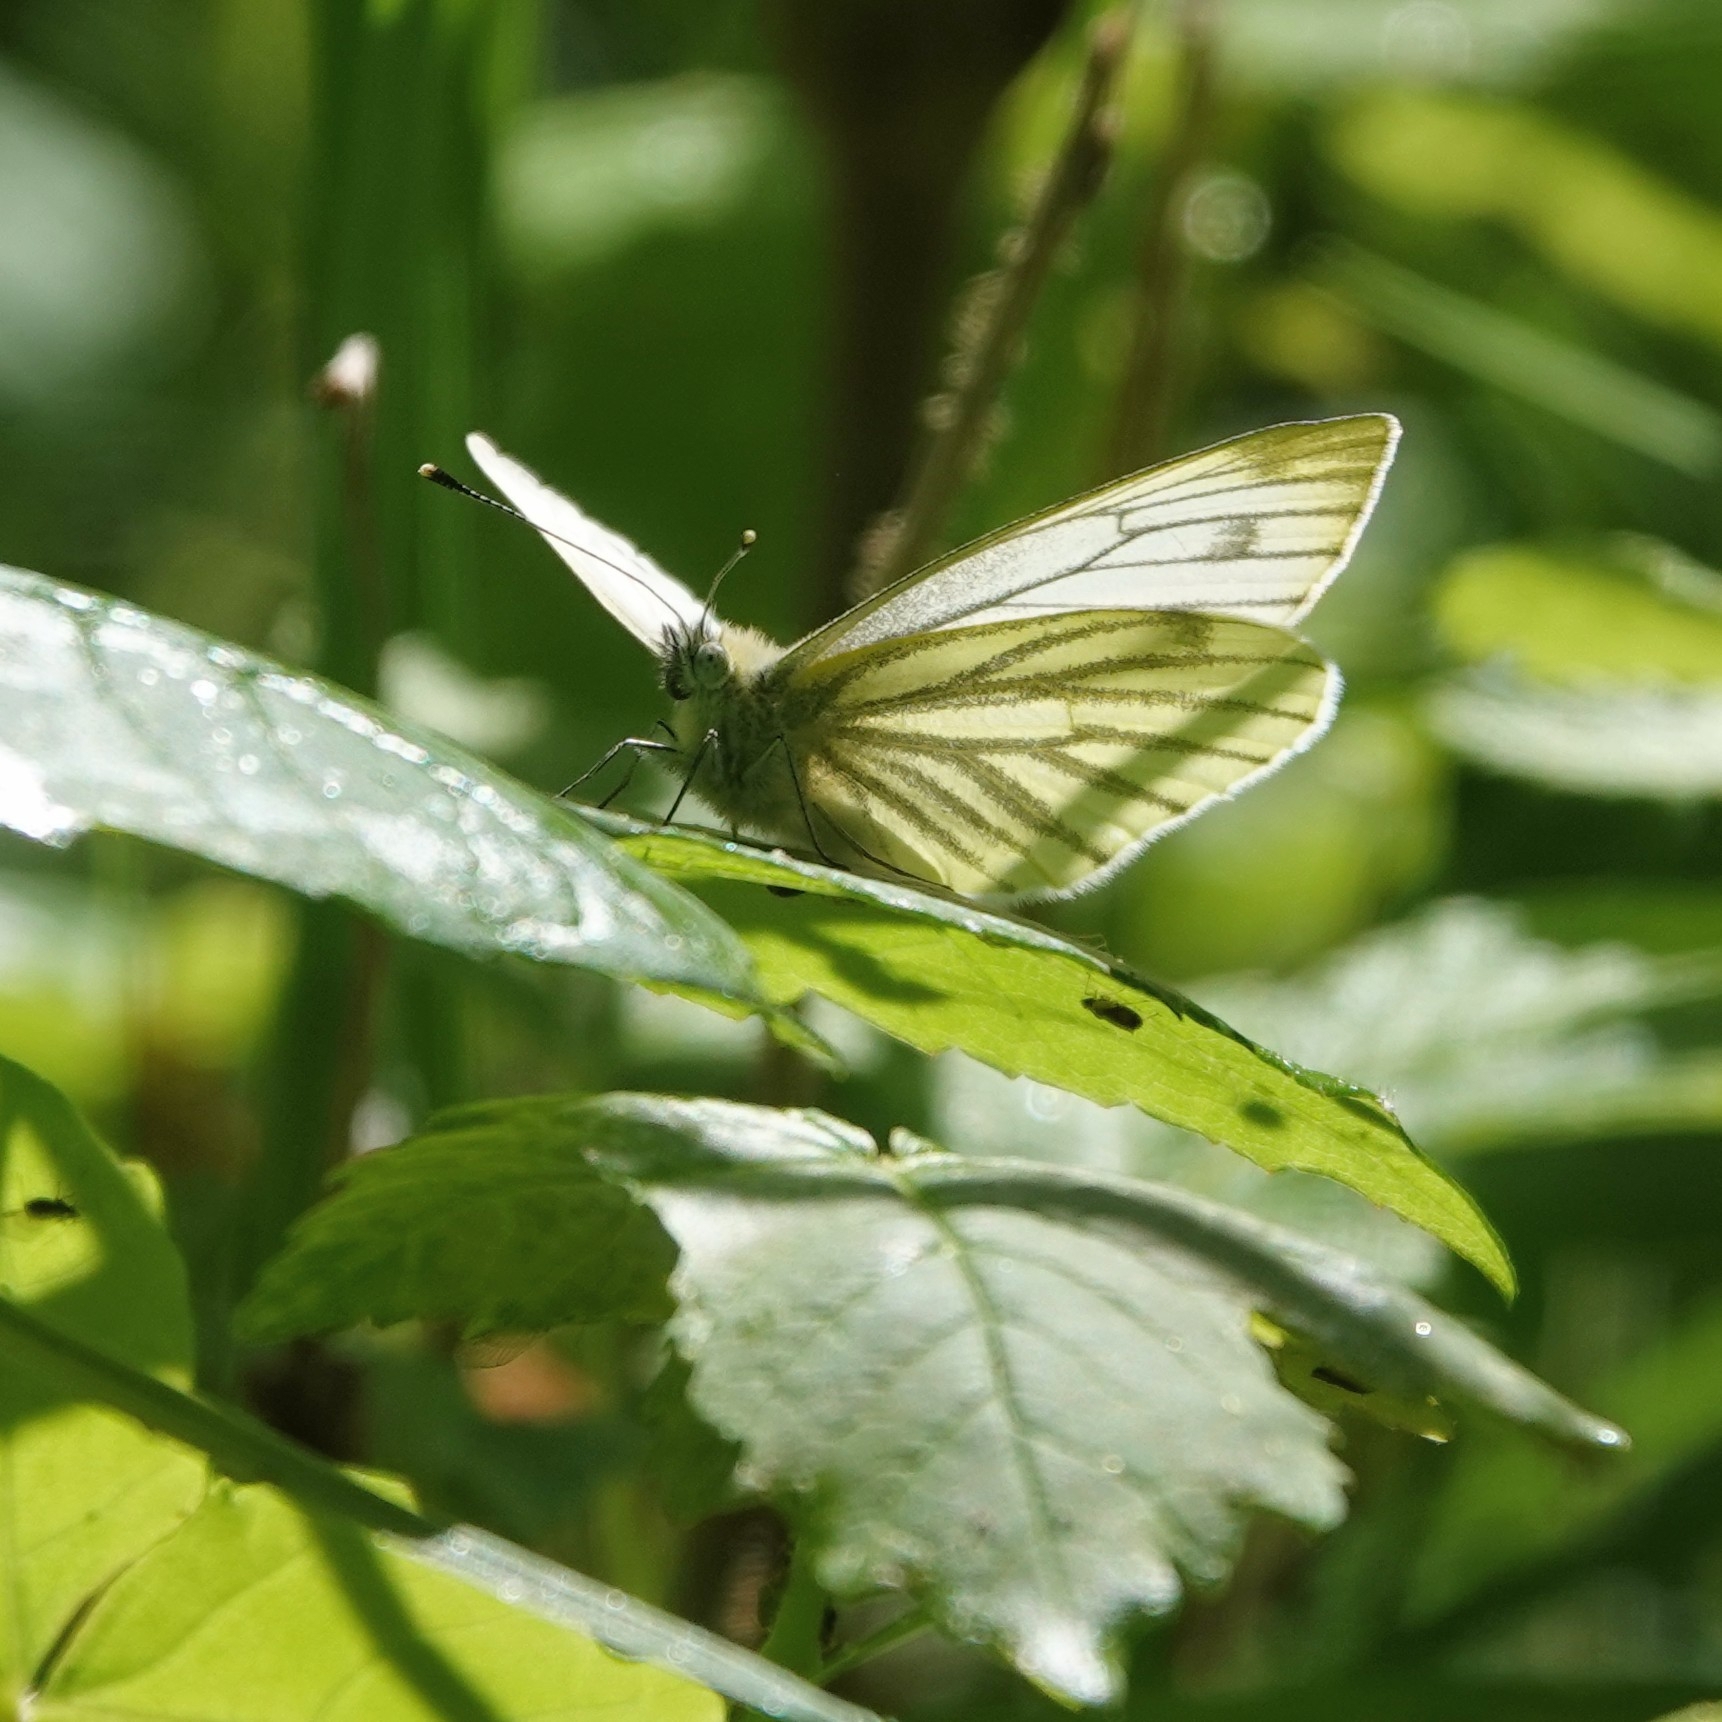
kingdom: Animalia
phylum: Arthropoda
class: Insecta
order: Lepidoptera
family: Pieridae
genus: Pieris
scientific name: Pieris napi
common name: Green-veined white
